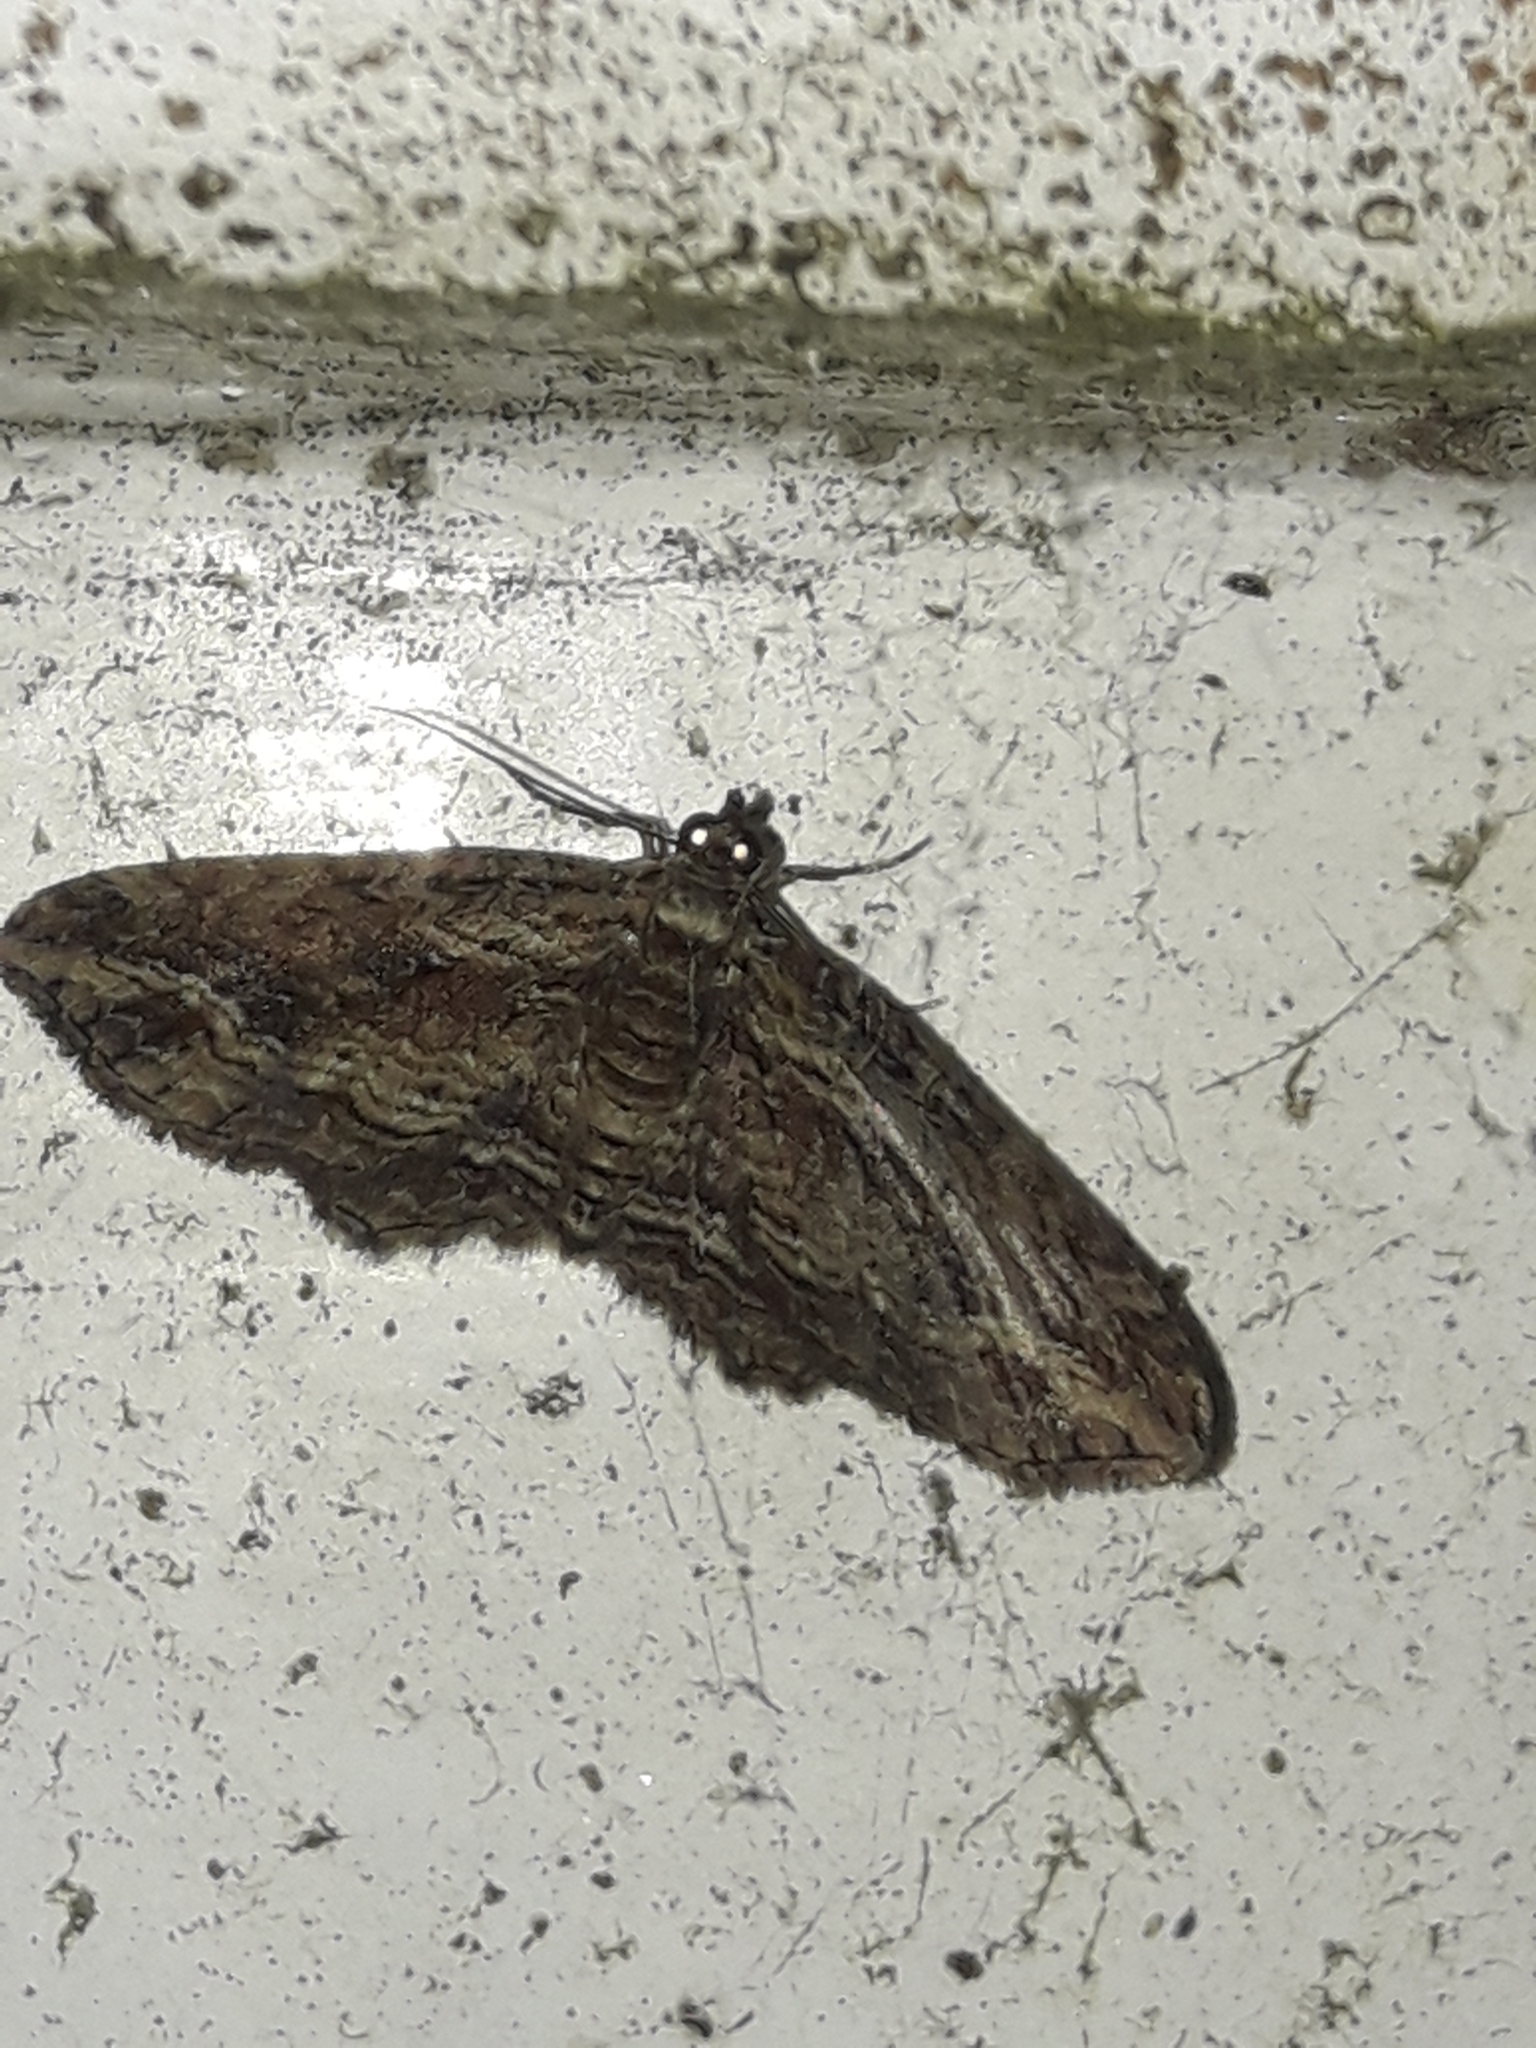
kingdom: Animalia
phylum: Arthropoda
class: Insecta
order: Lepidoptera
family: Geometridae
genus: Chloroclystis
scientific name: Chloroclystis filata
